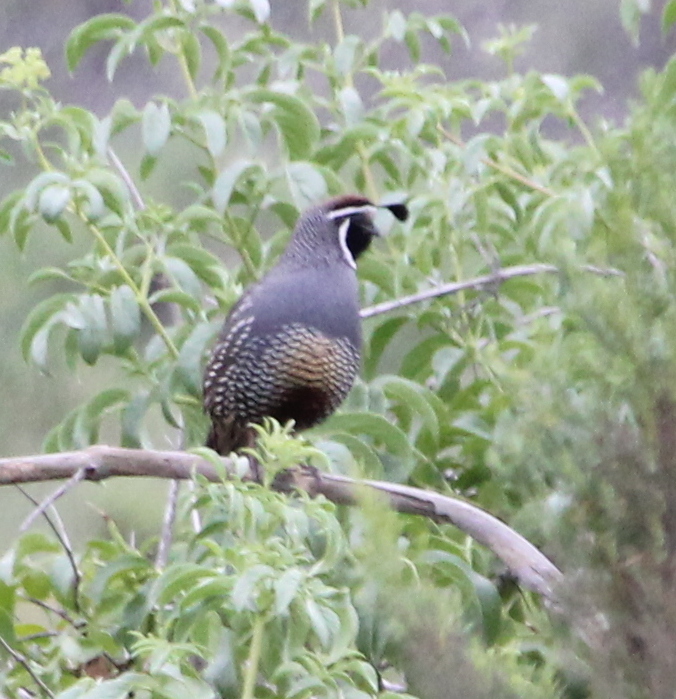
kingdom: Animalia
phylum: Chordata
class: Aves
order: Galliformes
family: Odontophoridae
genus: Callipepla
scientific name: Callipepla californica
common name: California quail
